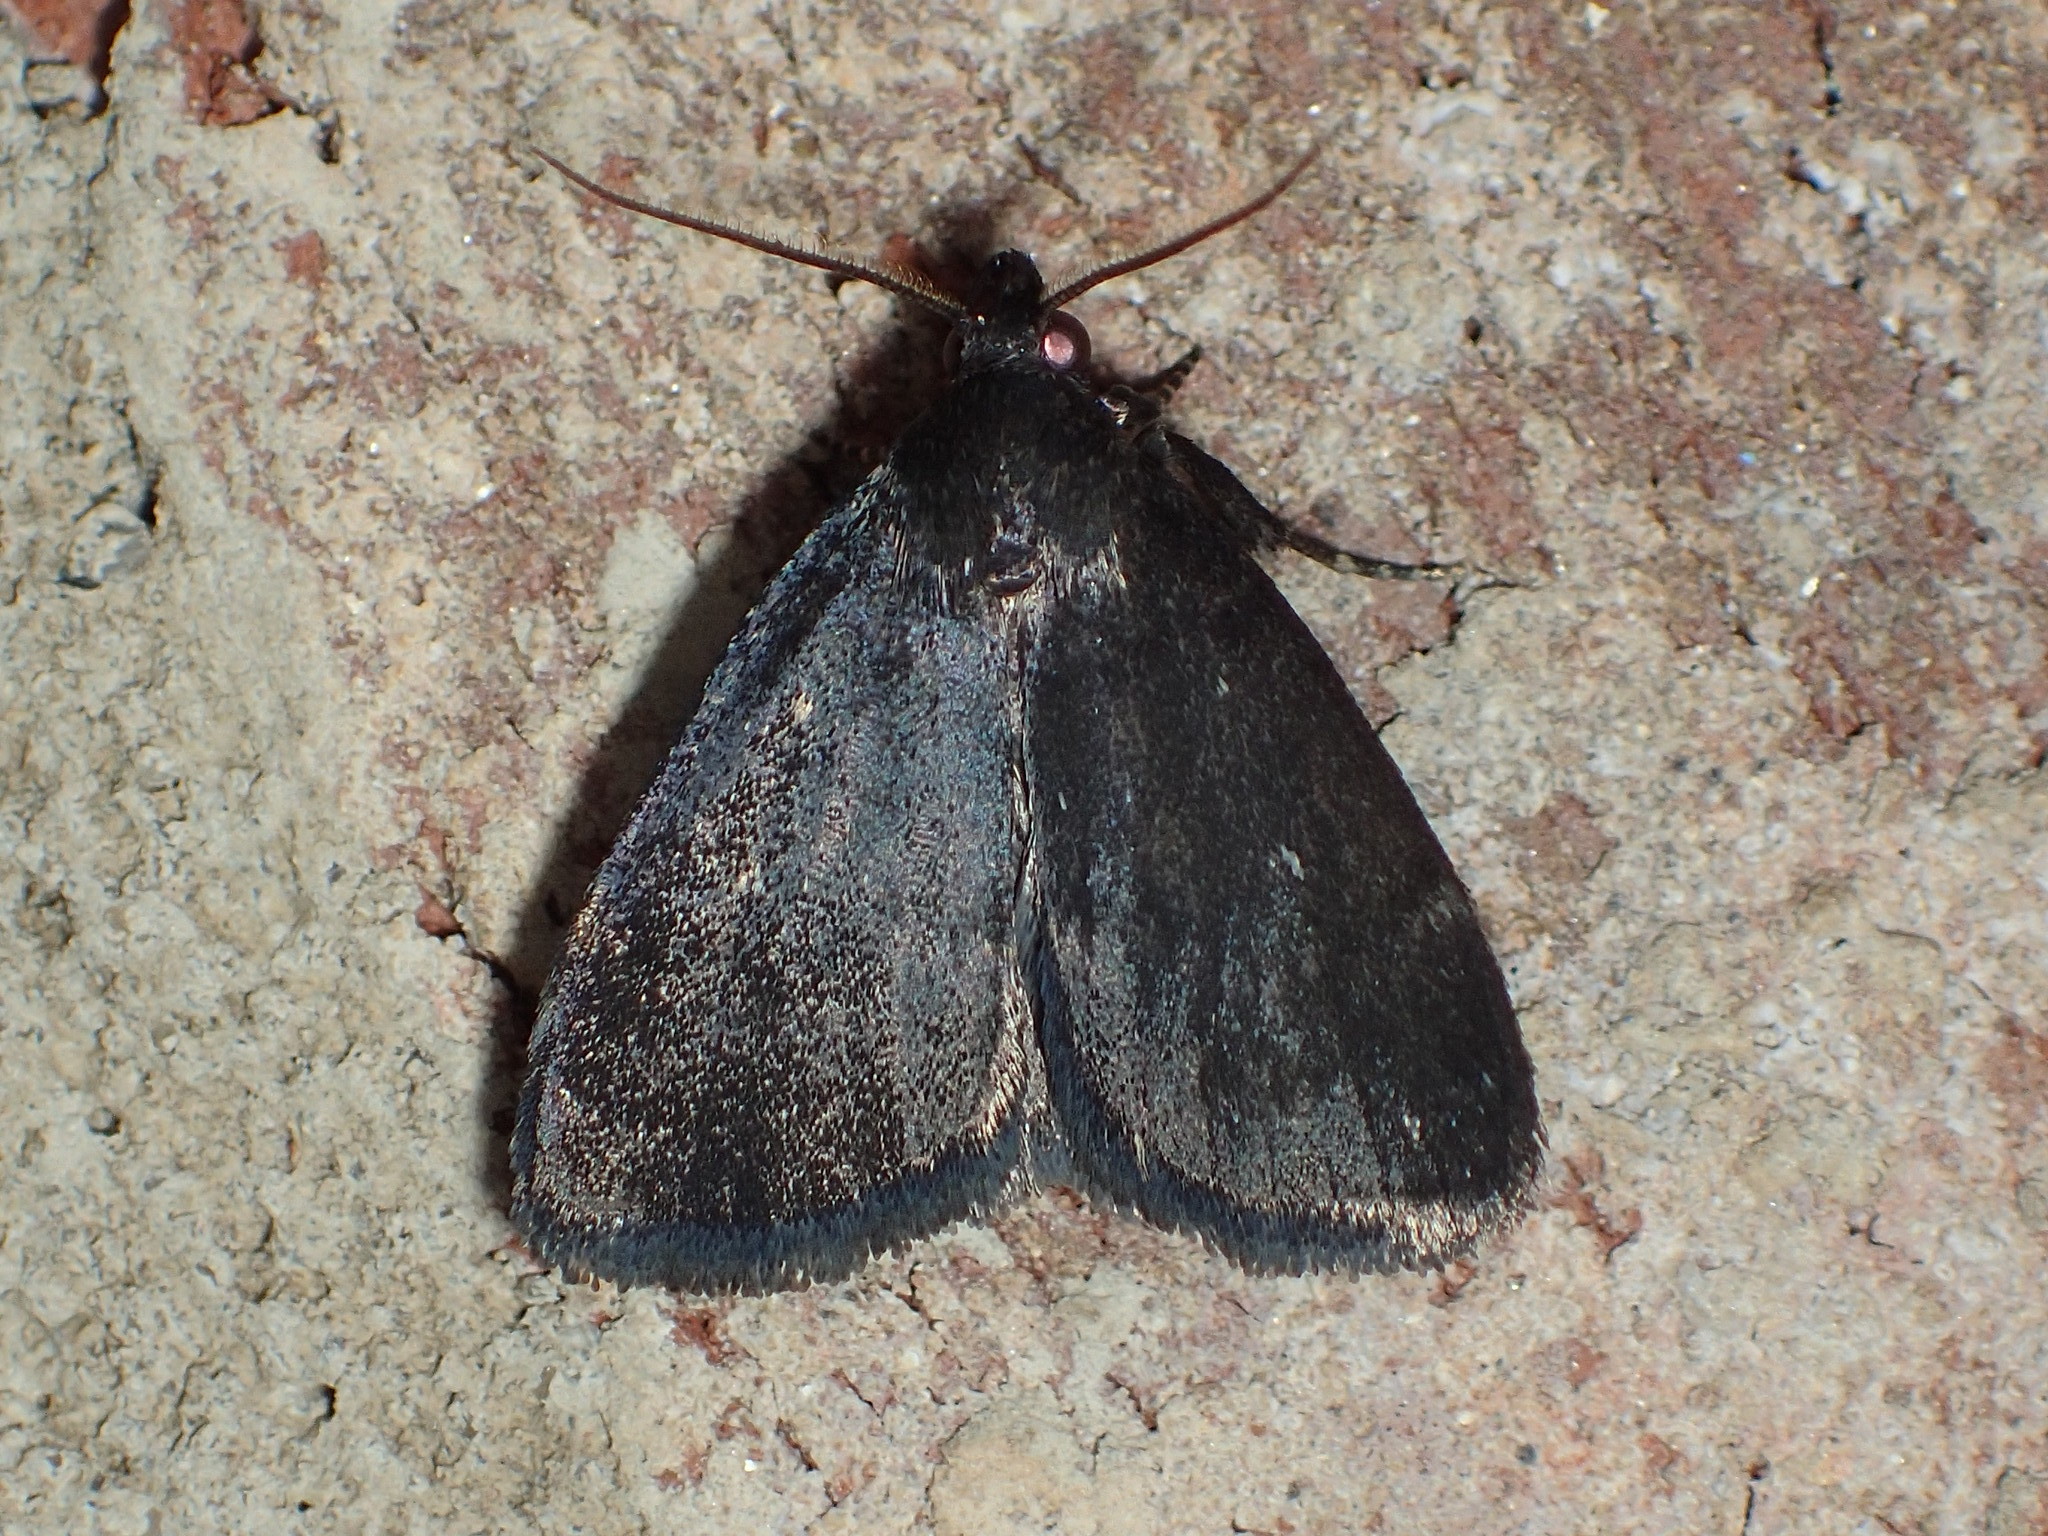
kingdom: Animalia
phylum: Arthropoda
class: Insecta
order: Lepidoptera
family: Erebidae
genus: Idia
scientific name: Idia rotundalis
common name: Rotund idia moth
